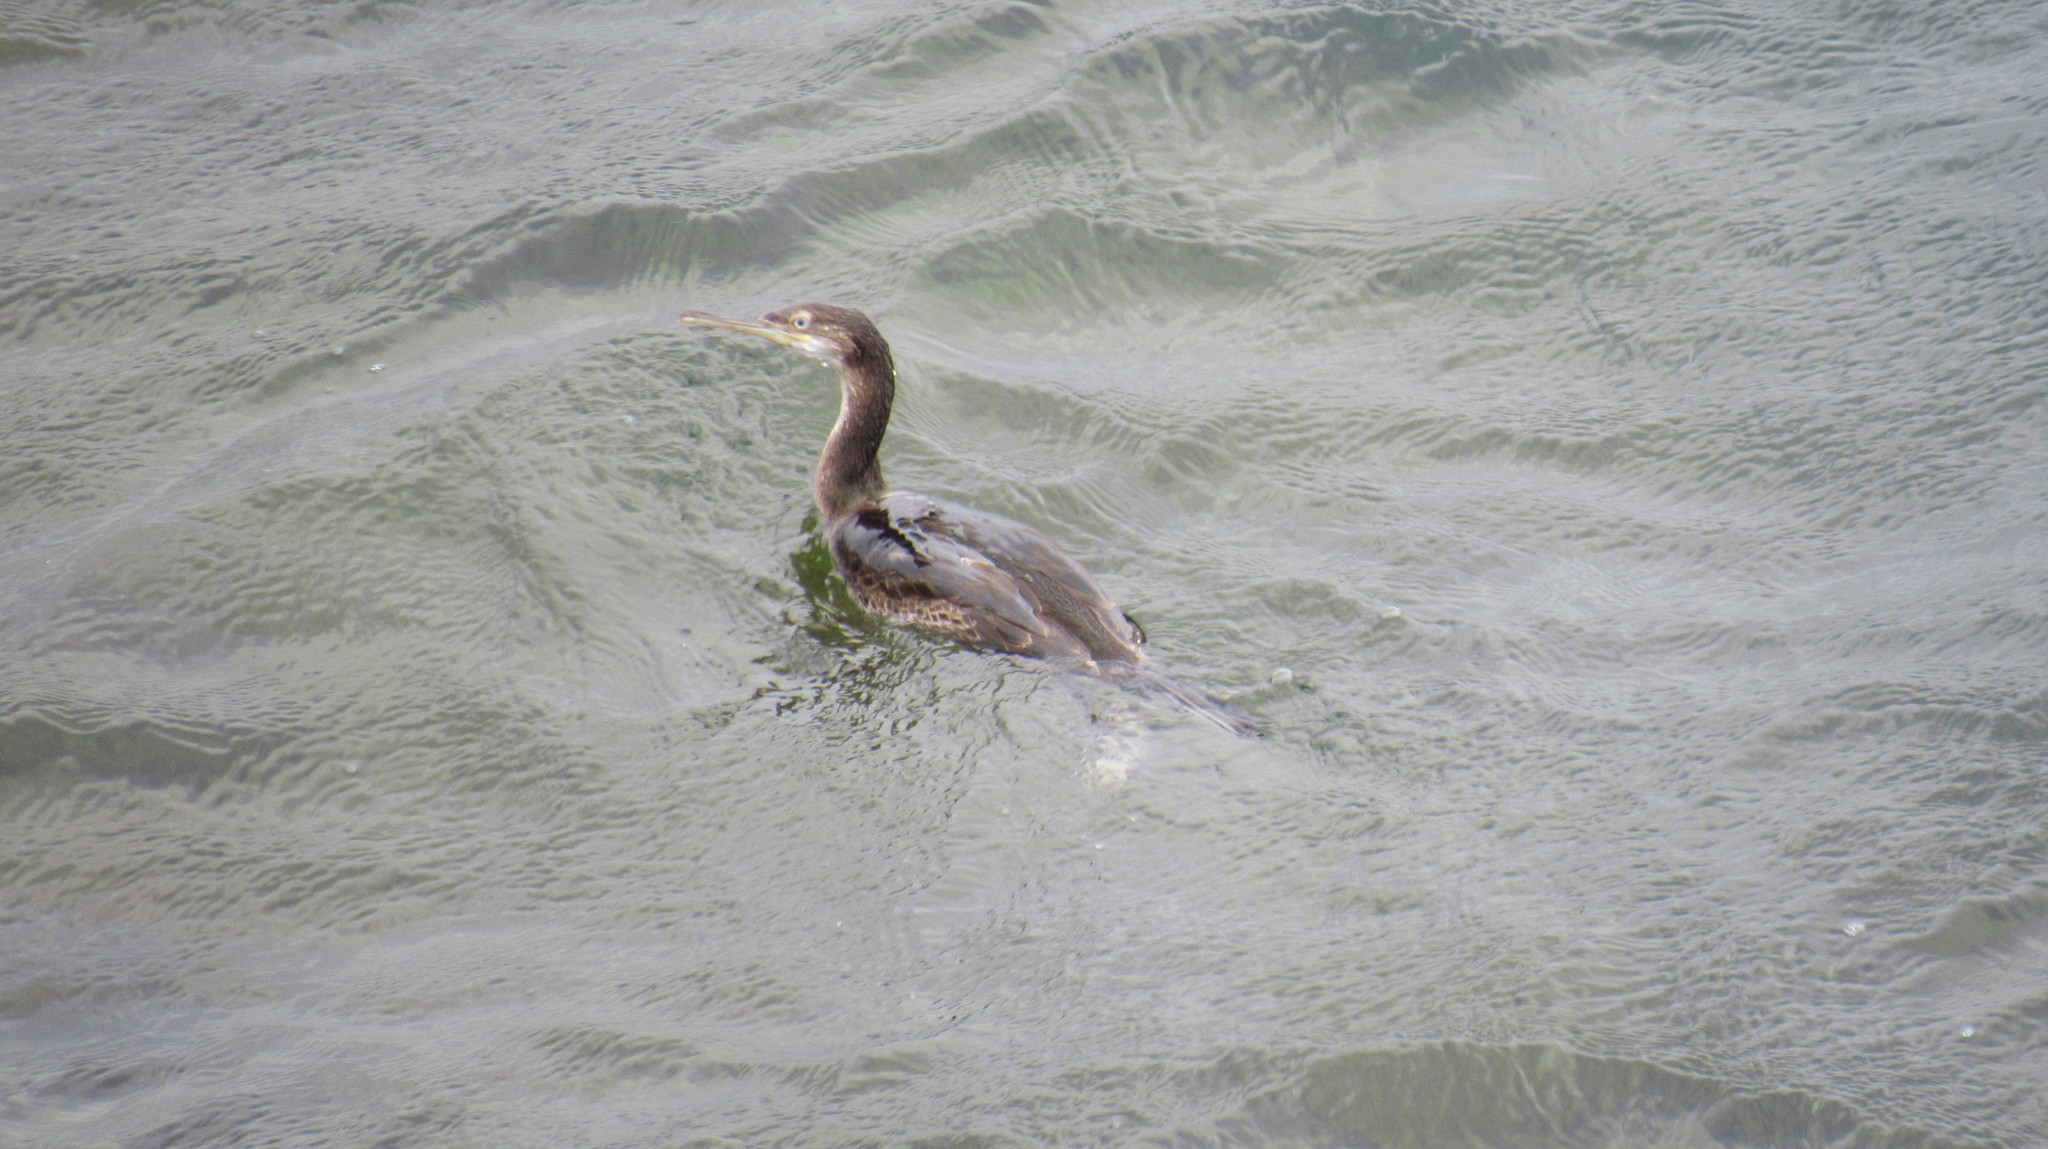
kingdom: Animalia
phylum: Chordata
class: Aves
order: Suliformes
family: Phalacrocoracidae
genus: Phalacrocorax
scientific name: Phalacrocorax aristotelis
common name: European shag
